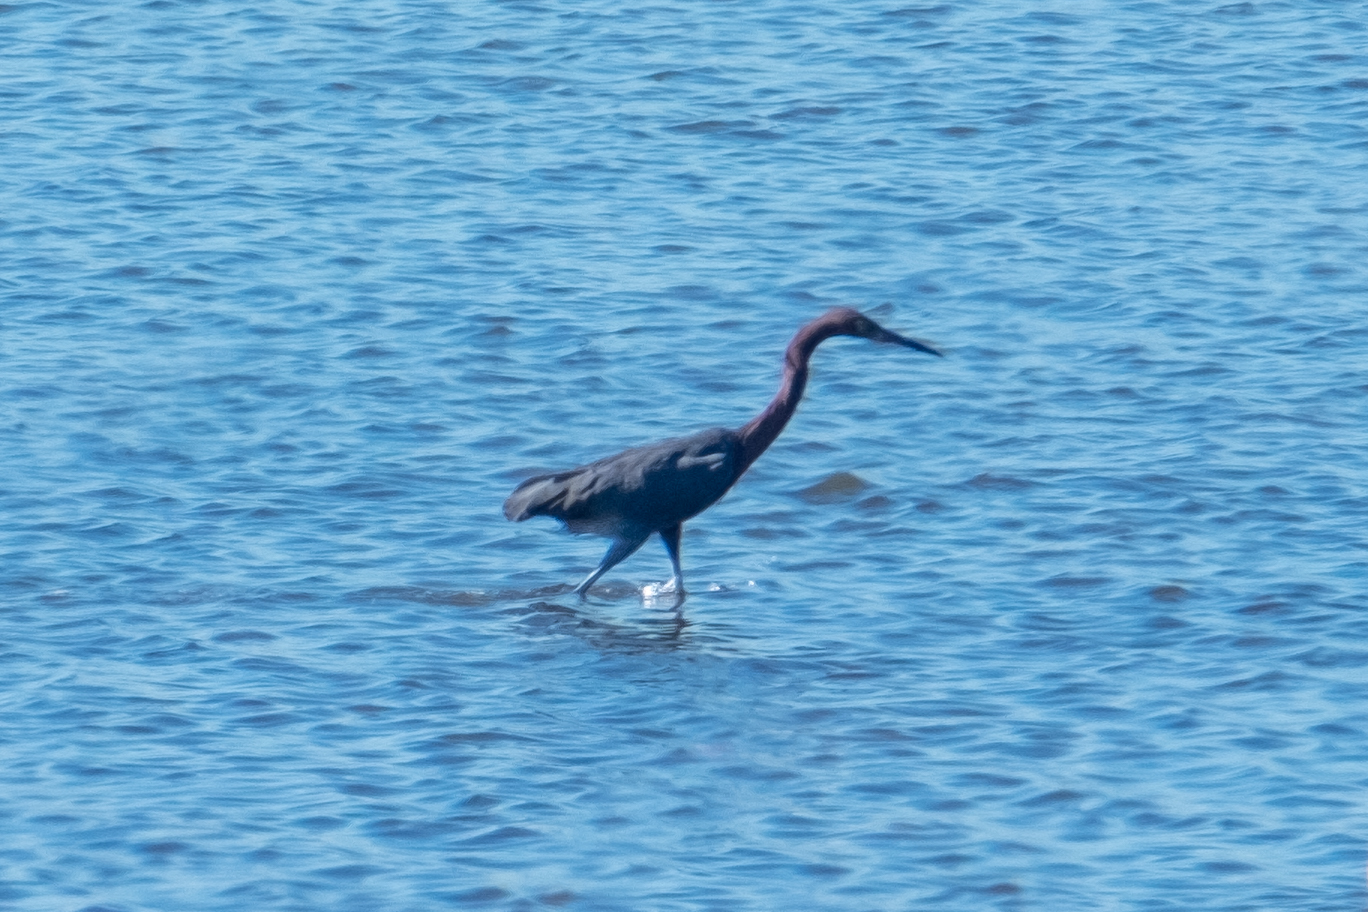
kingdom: Animalia
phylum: Chordata
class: Aves
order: Pelecaniformes
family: Ardeidae
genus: Egretta
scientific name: Egretta rufescens
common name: Reddish egret
